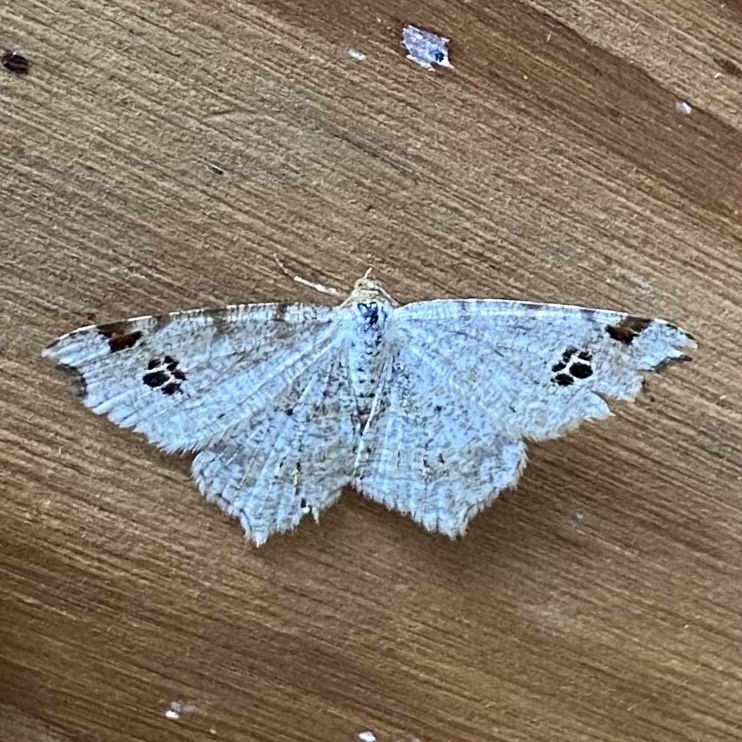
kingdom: Animalia
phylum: Arthropoda
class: Insecta
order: Lepidoptera
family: Geometridae
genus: Macaria
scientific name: Macaria alternata
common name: Sharp-angled peacock
